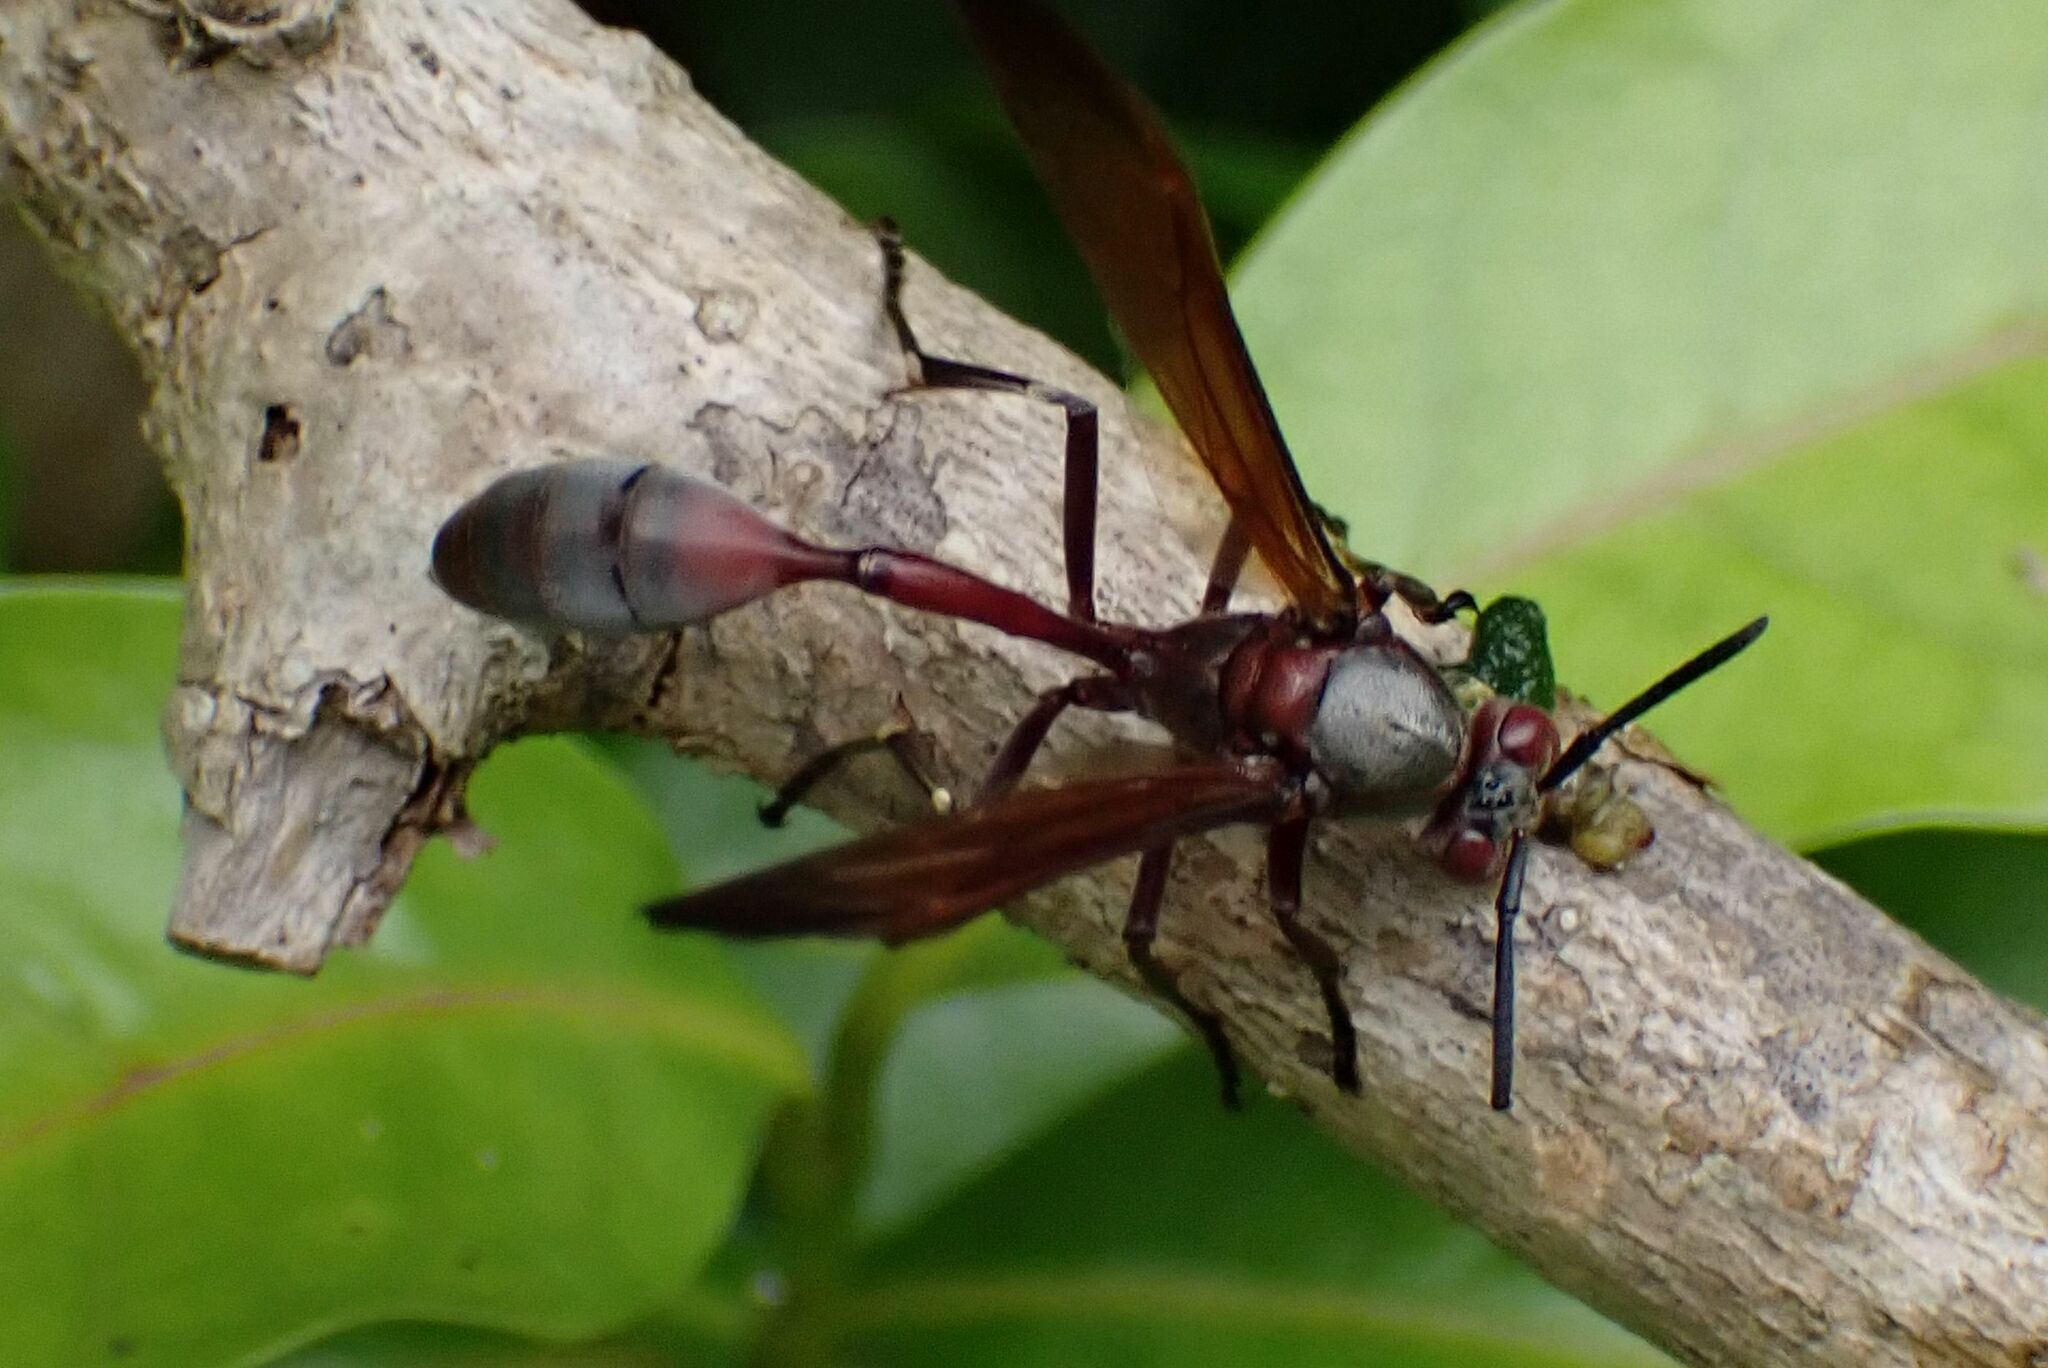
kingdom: Animalia
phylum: Arthropoda
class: Insecta
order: Hymenoptera
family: Eumenidae
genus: Belonogaster
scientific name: Belonogaster juncea
